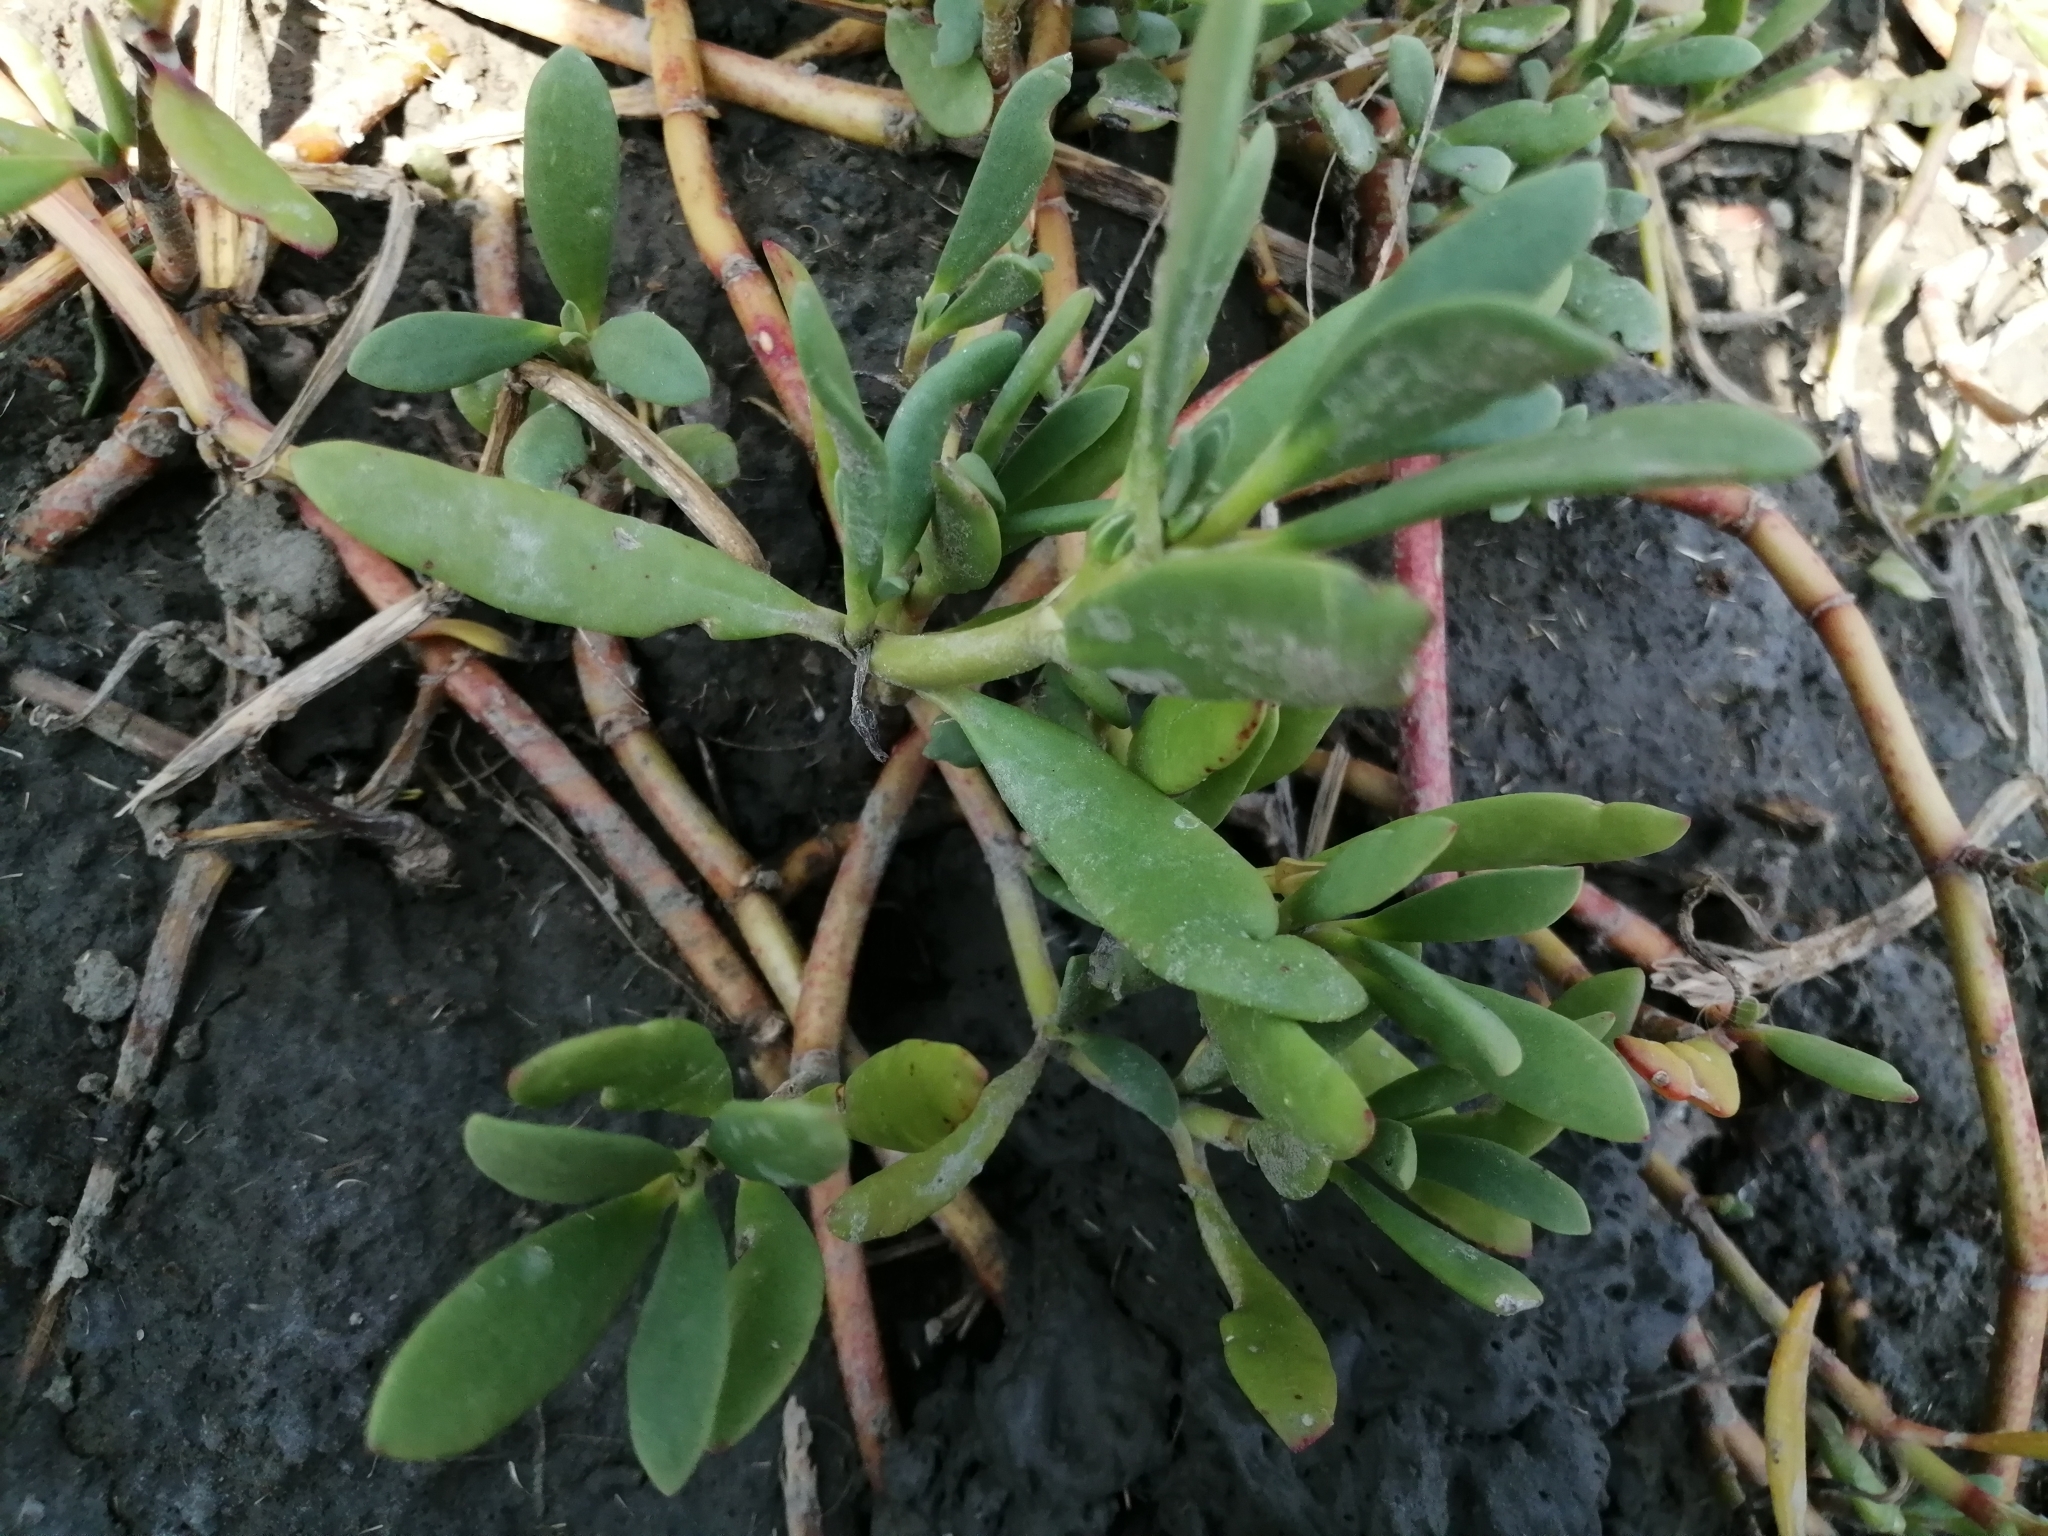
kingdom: Plantae
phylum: Tracheophyta
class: Magnoliopsida
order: Caryophyllales
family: Aizoaceae
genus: Sesuvium
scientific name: Sesuvium portulacastrum
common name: Sea-purslane
